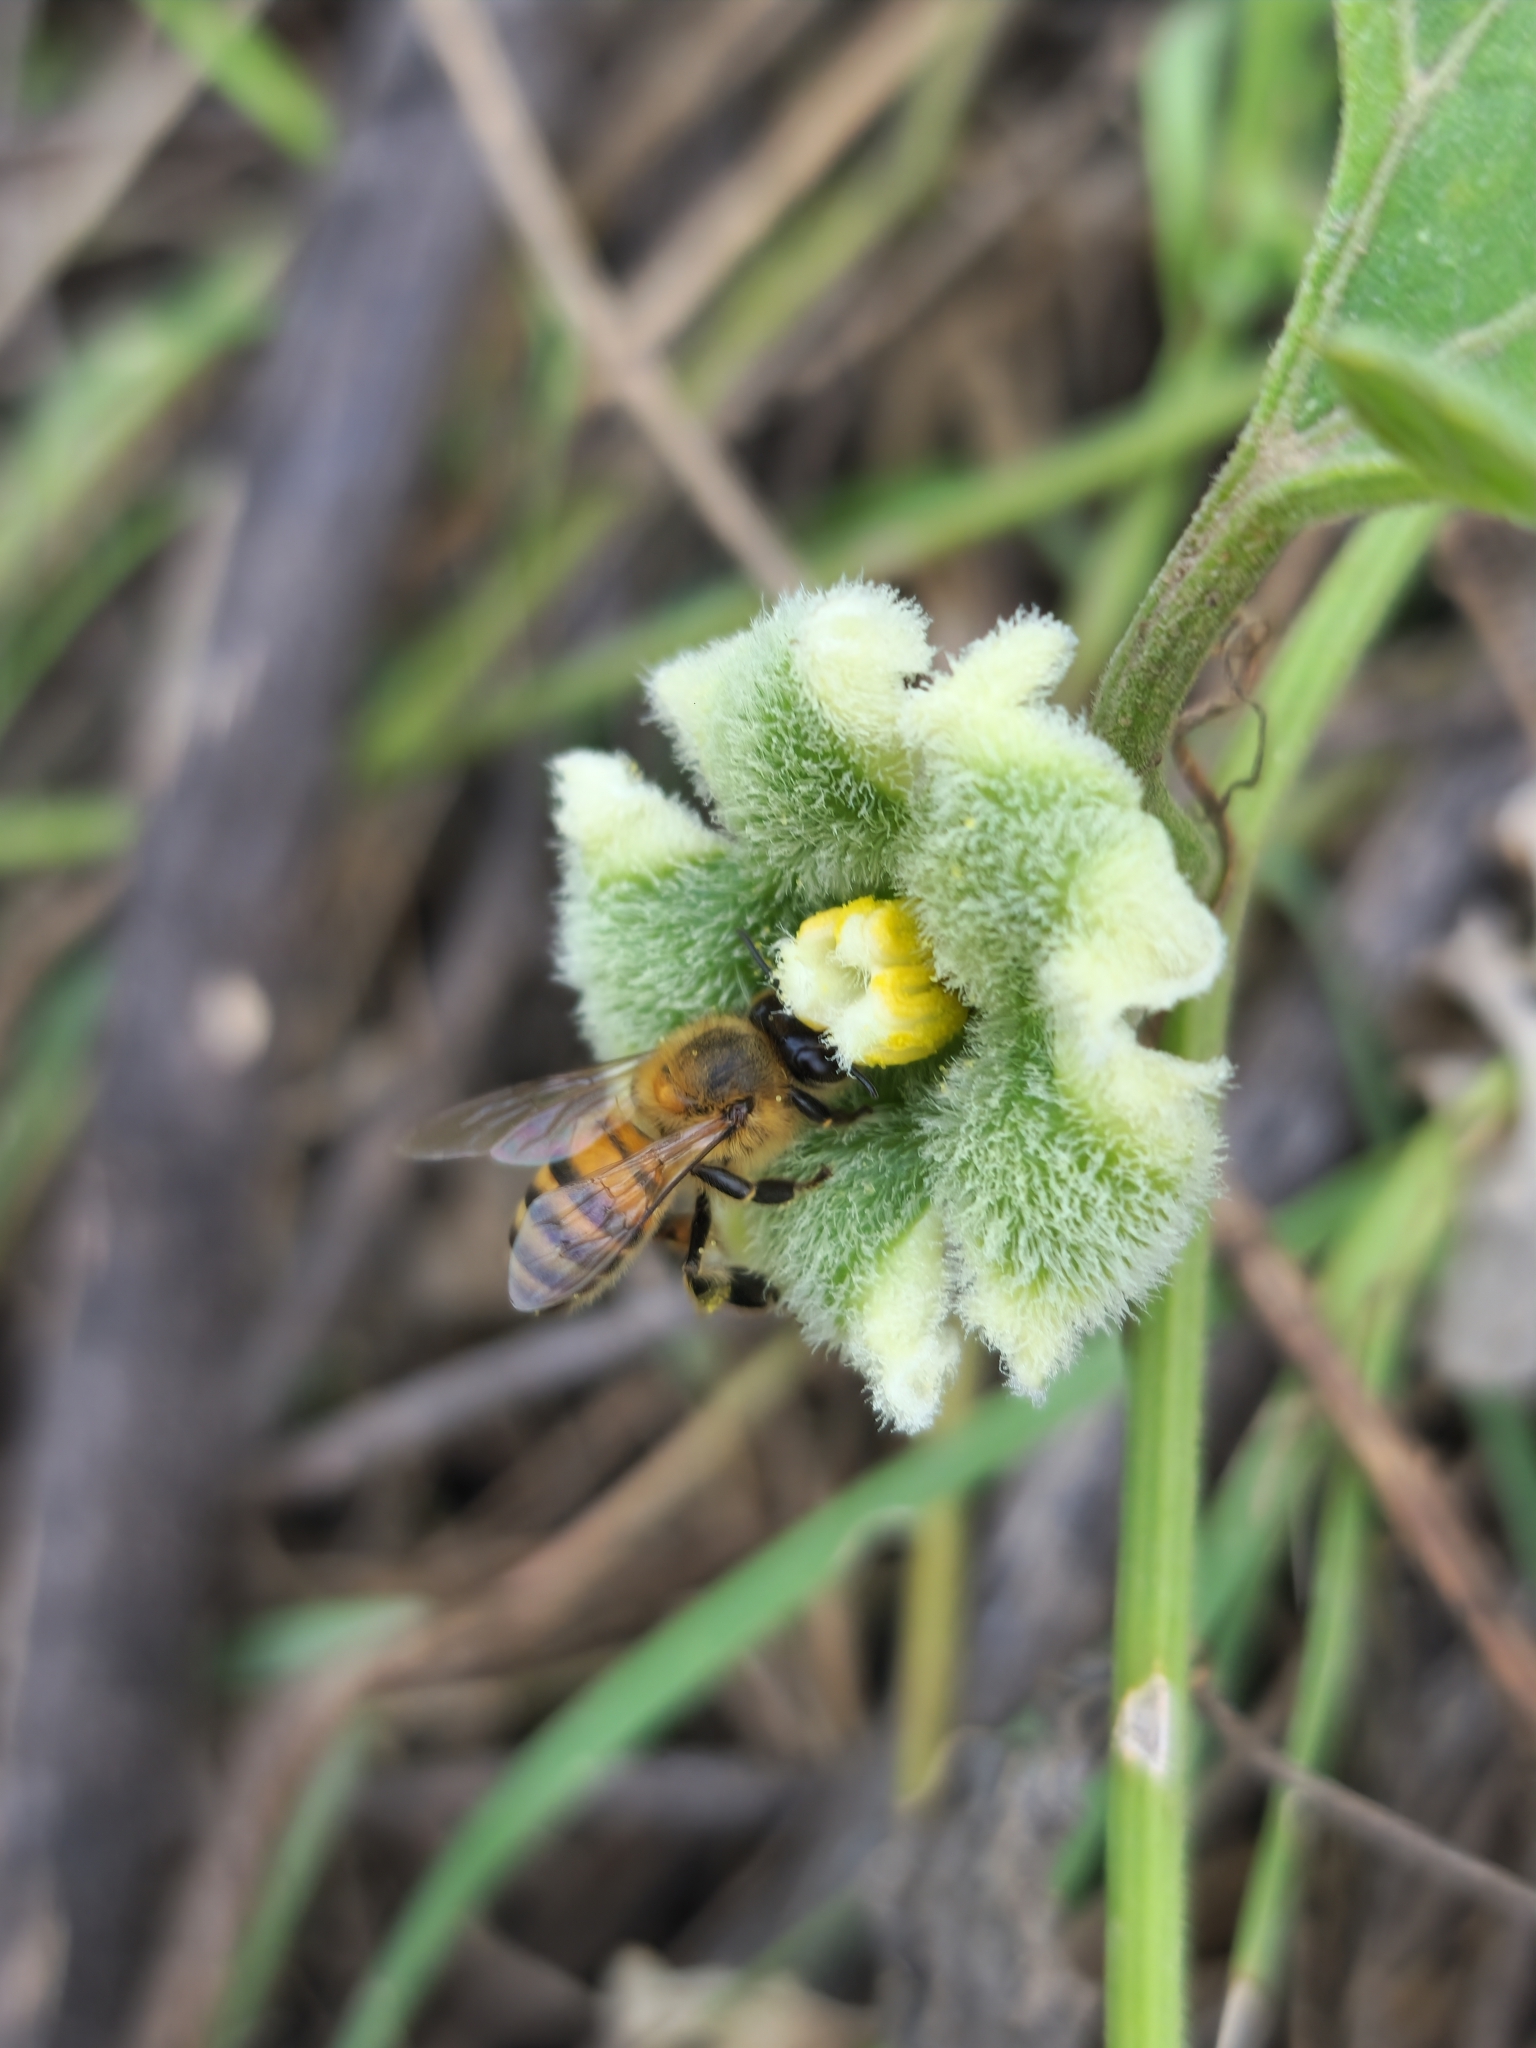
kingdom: Animalia
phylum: Arthropoda
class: Insecta
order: Hymenoptera
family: Apidae
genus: Apis
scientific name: Apis mellifera
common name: Honey bee
